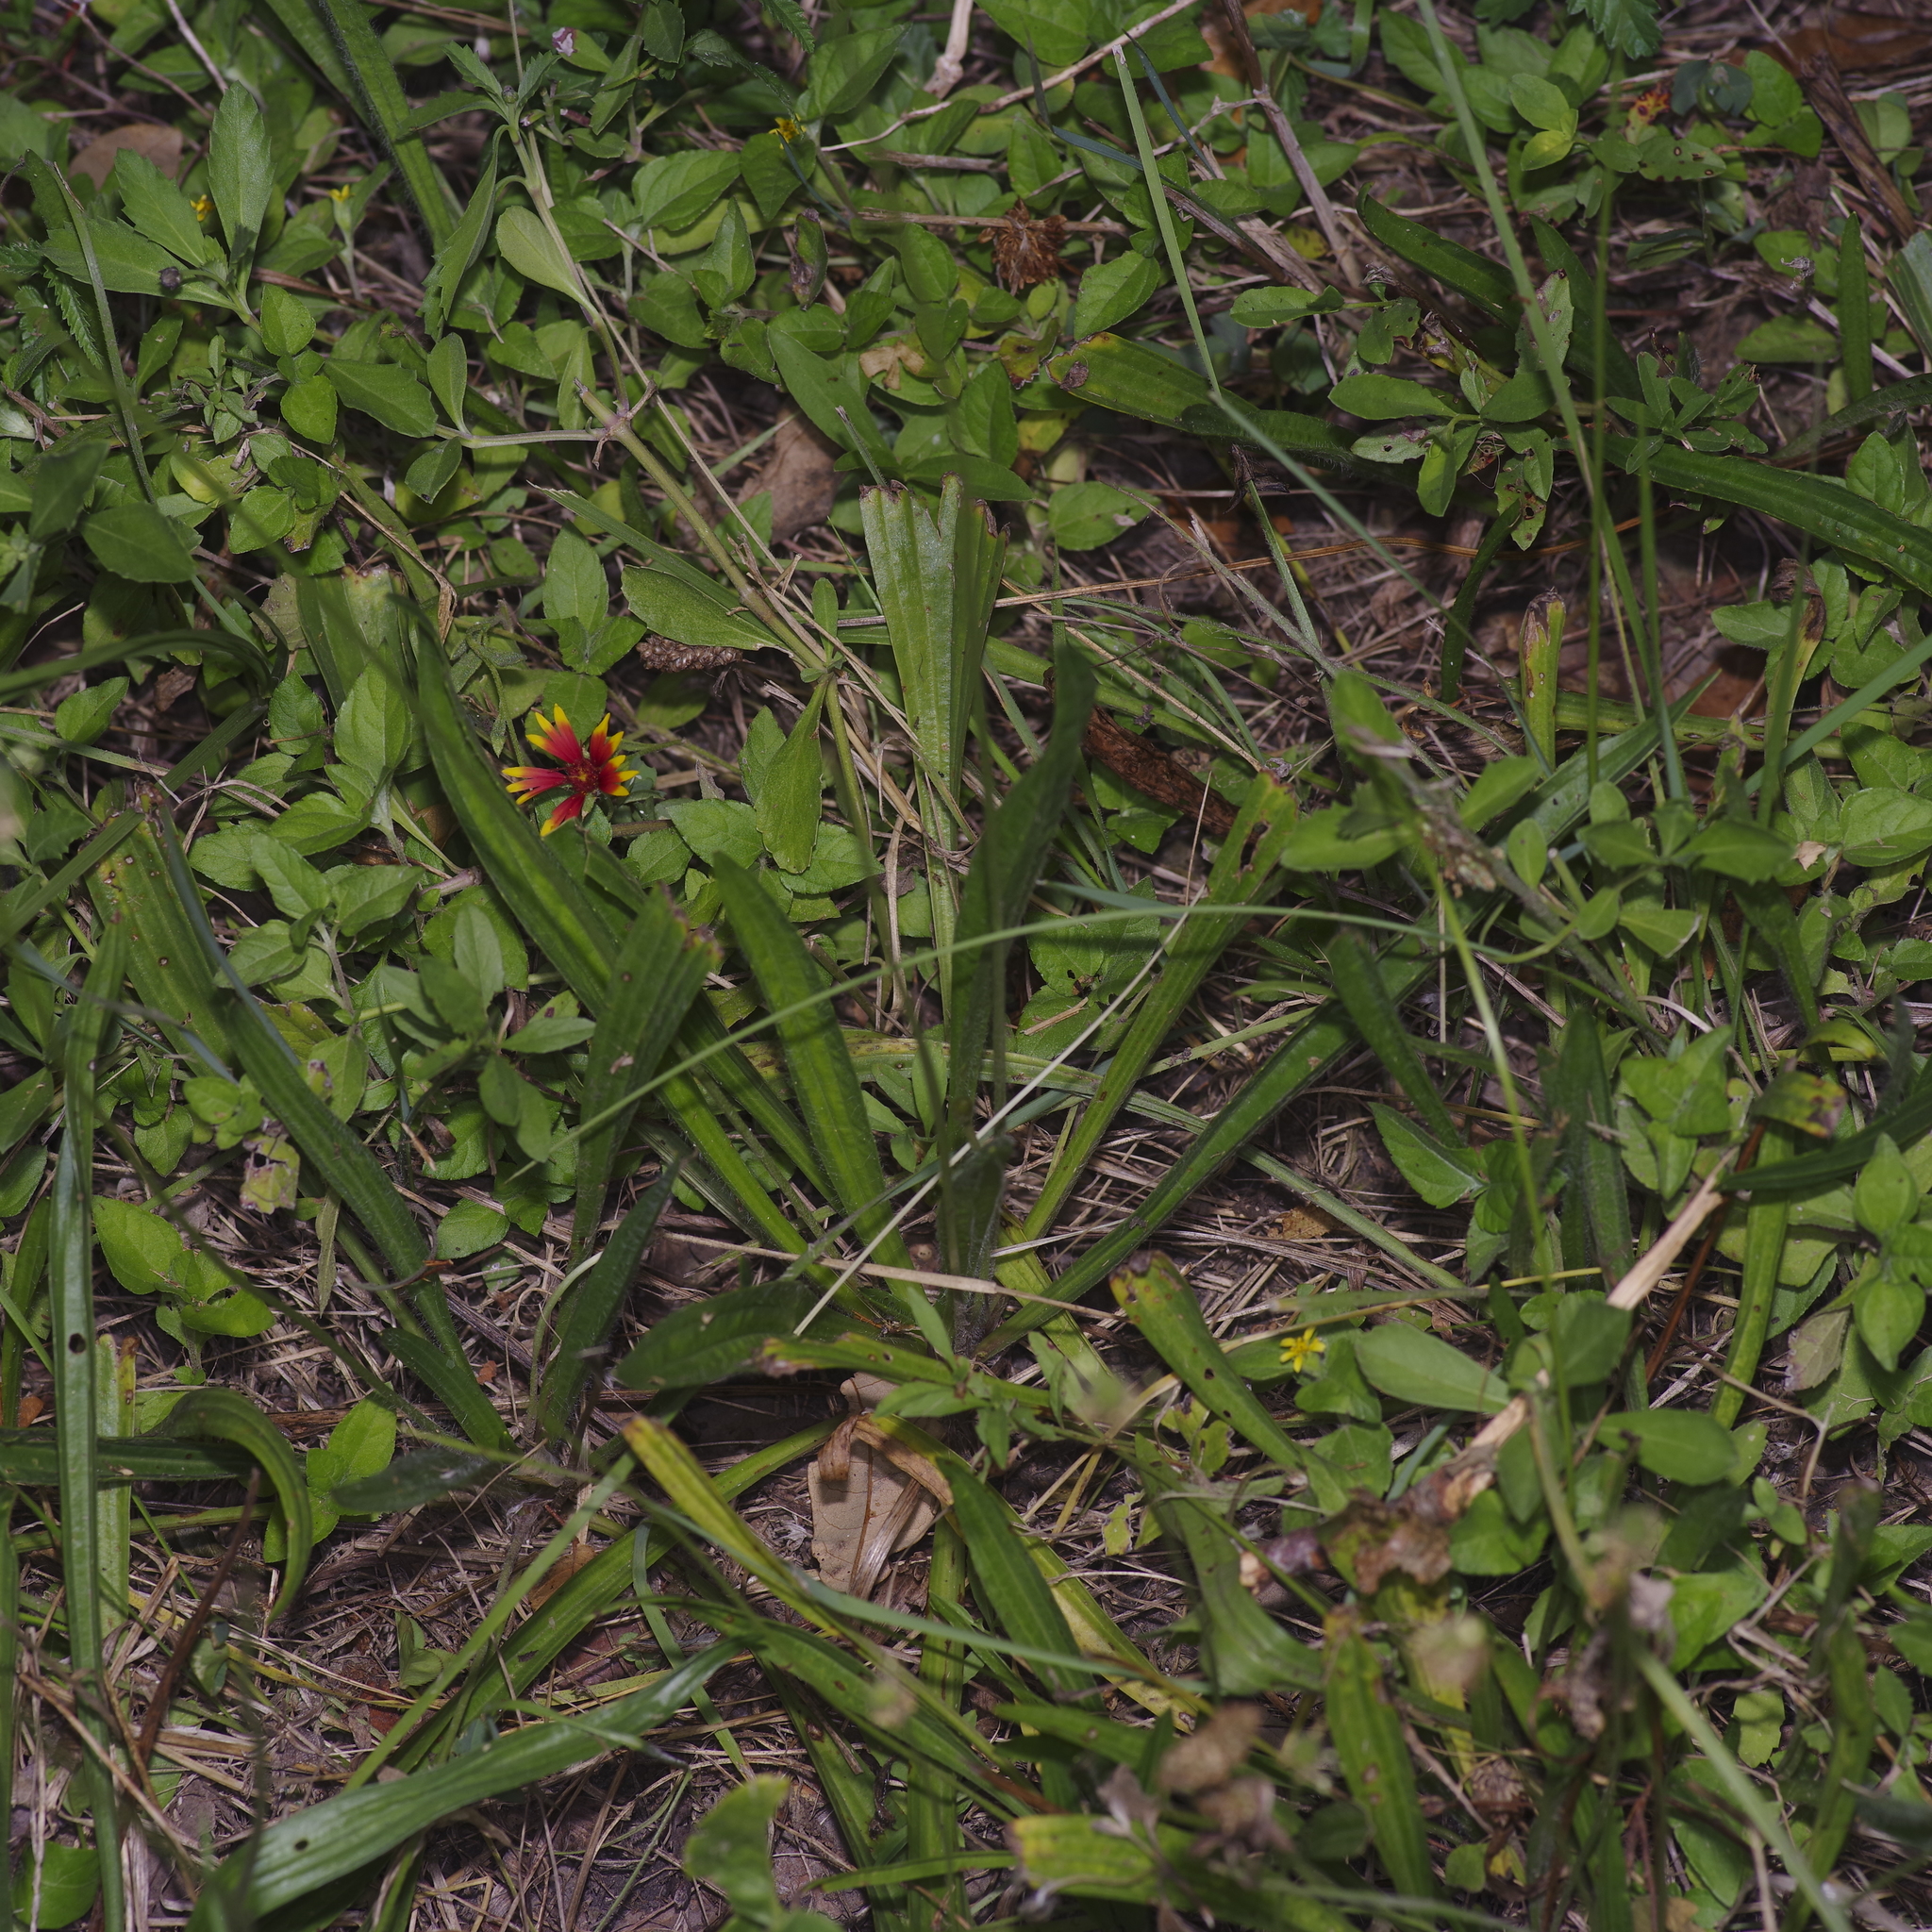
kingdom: Plantae
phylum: Tracheophyta
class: Magnoliopsida
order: Lamiales
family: Plantaginaceae
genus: Plantago
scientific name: Plantago lanceolata
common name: Ribwort plantain
